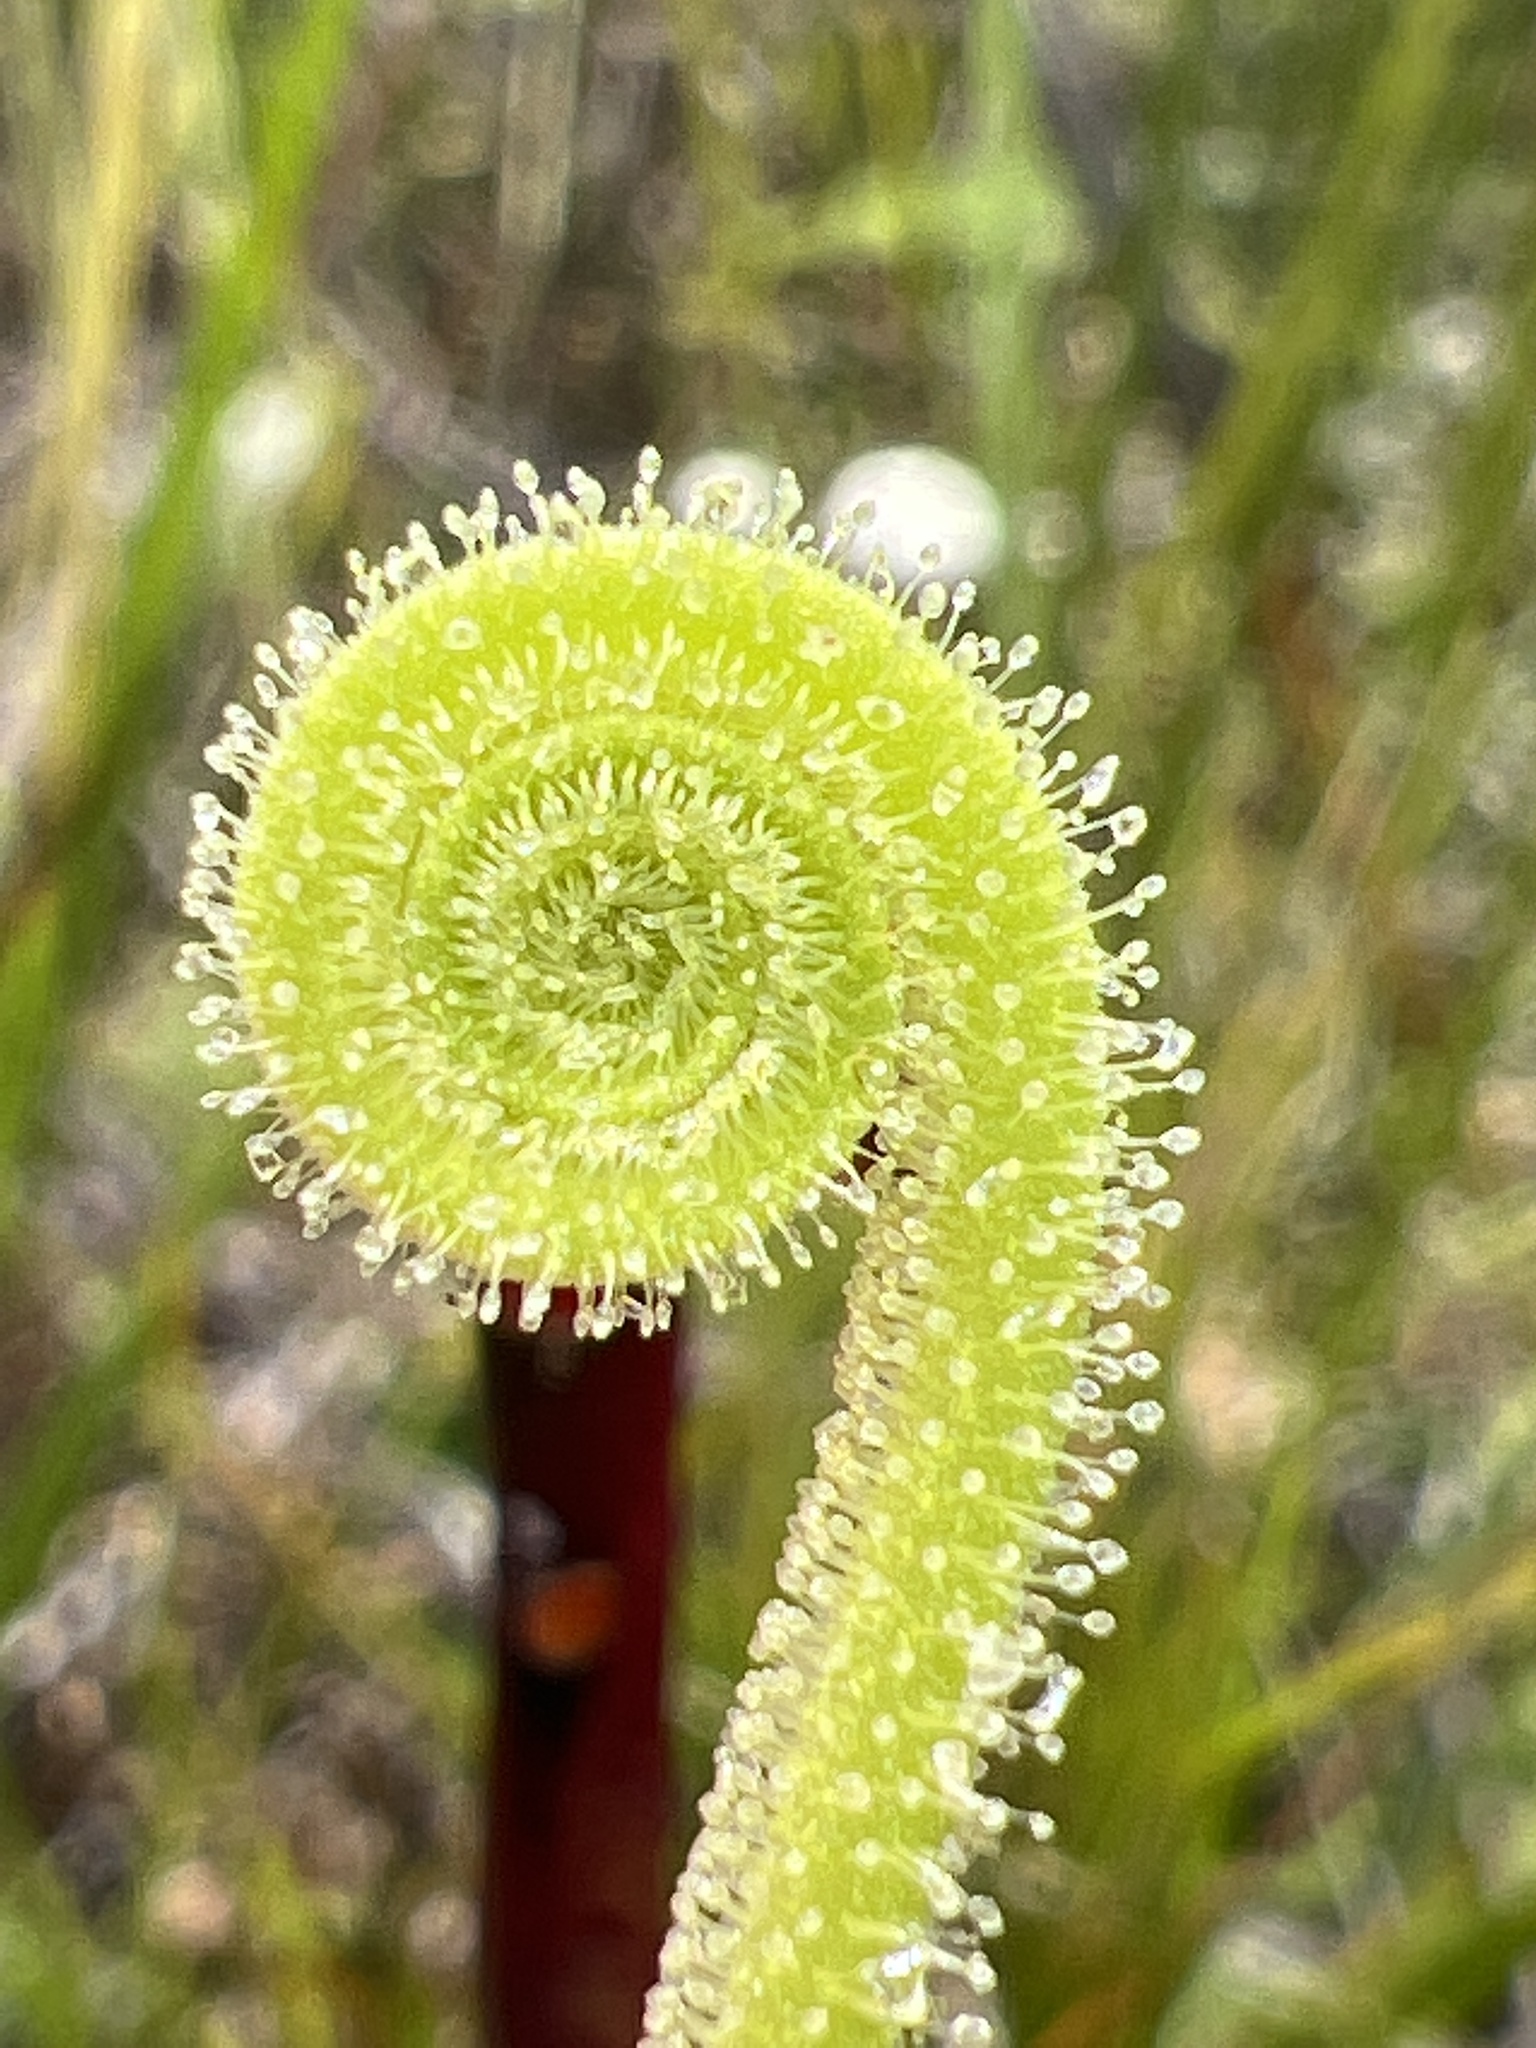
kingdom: Plantae
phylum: Tracheophyta
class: Magnoliopsida
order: Caryophyllales
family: Droseraceae
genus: Drosera
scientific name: Drosera filiformis
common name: Dew-thread
